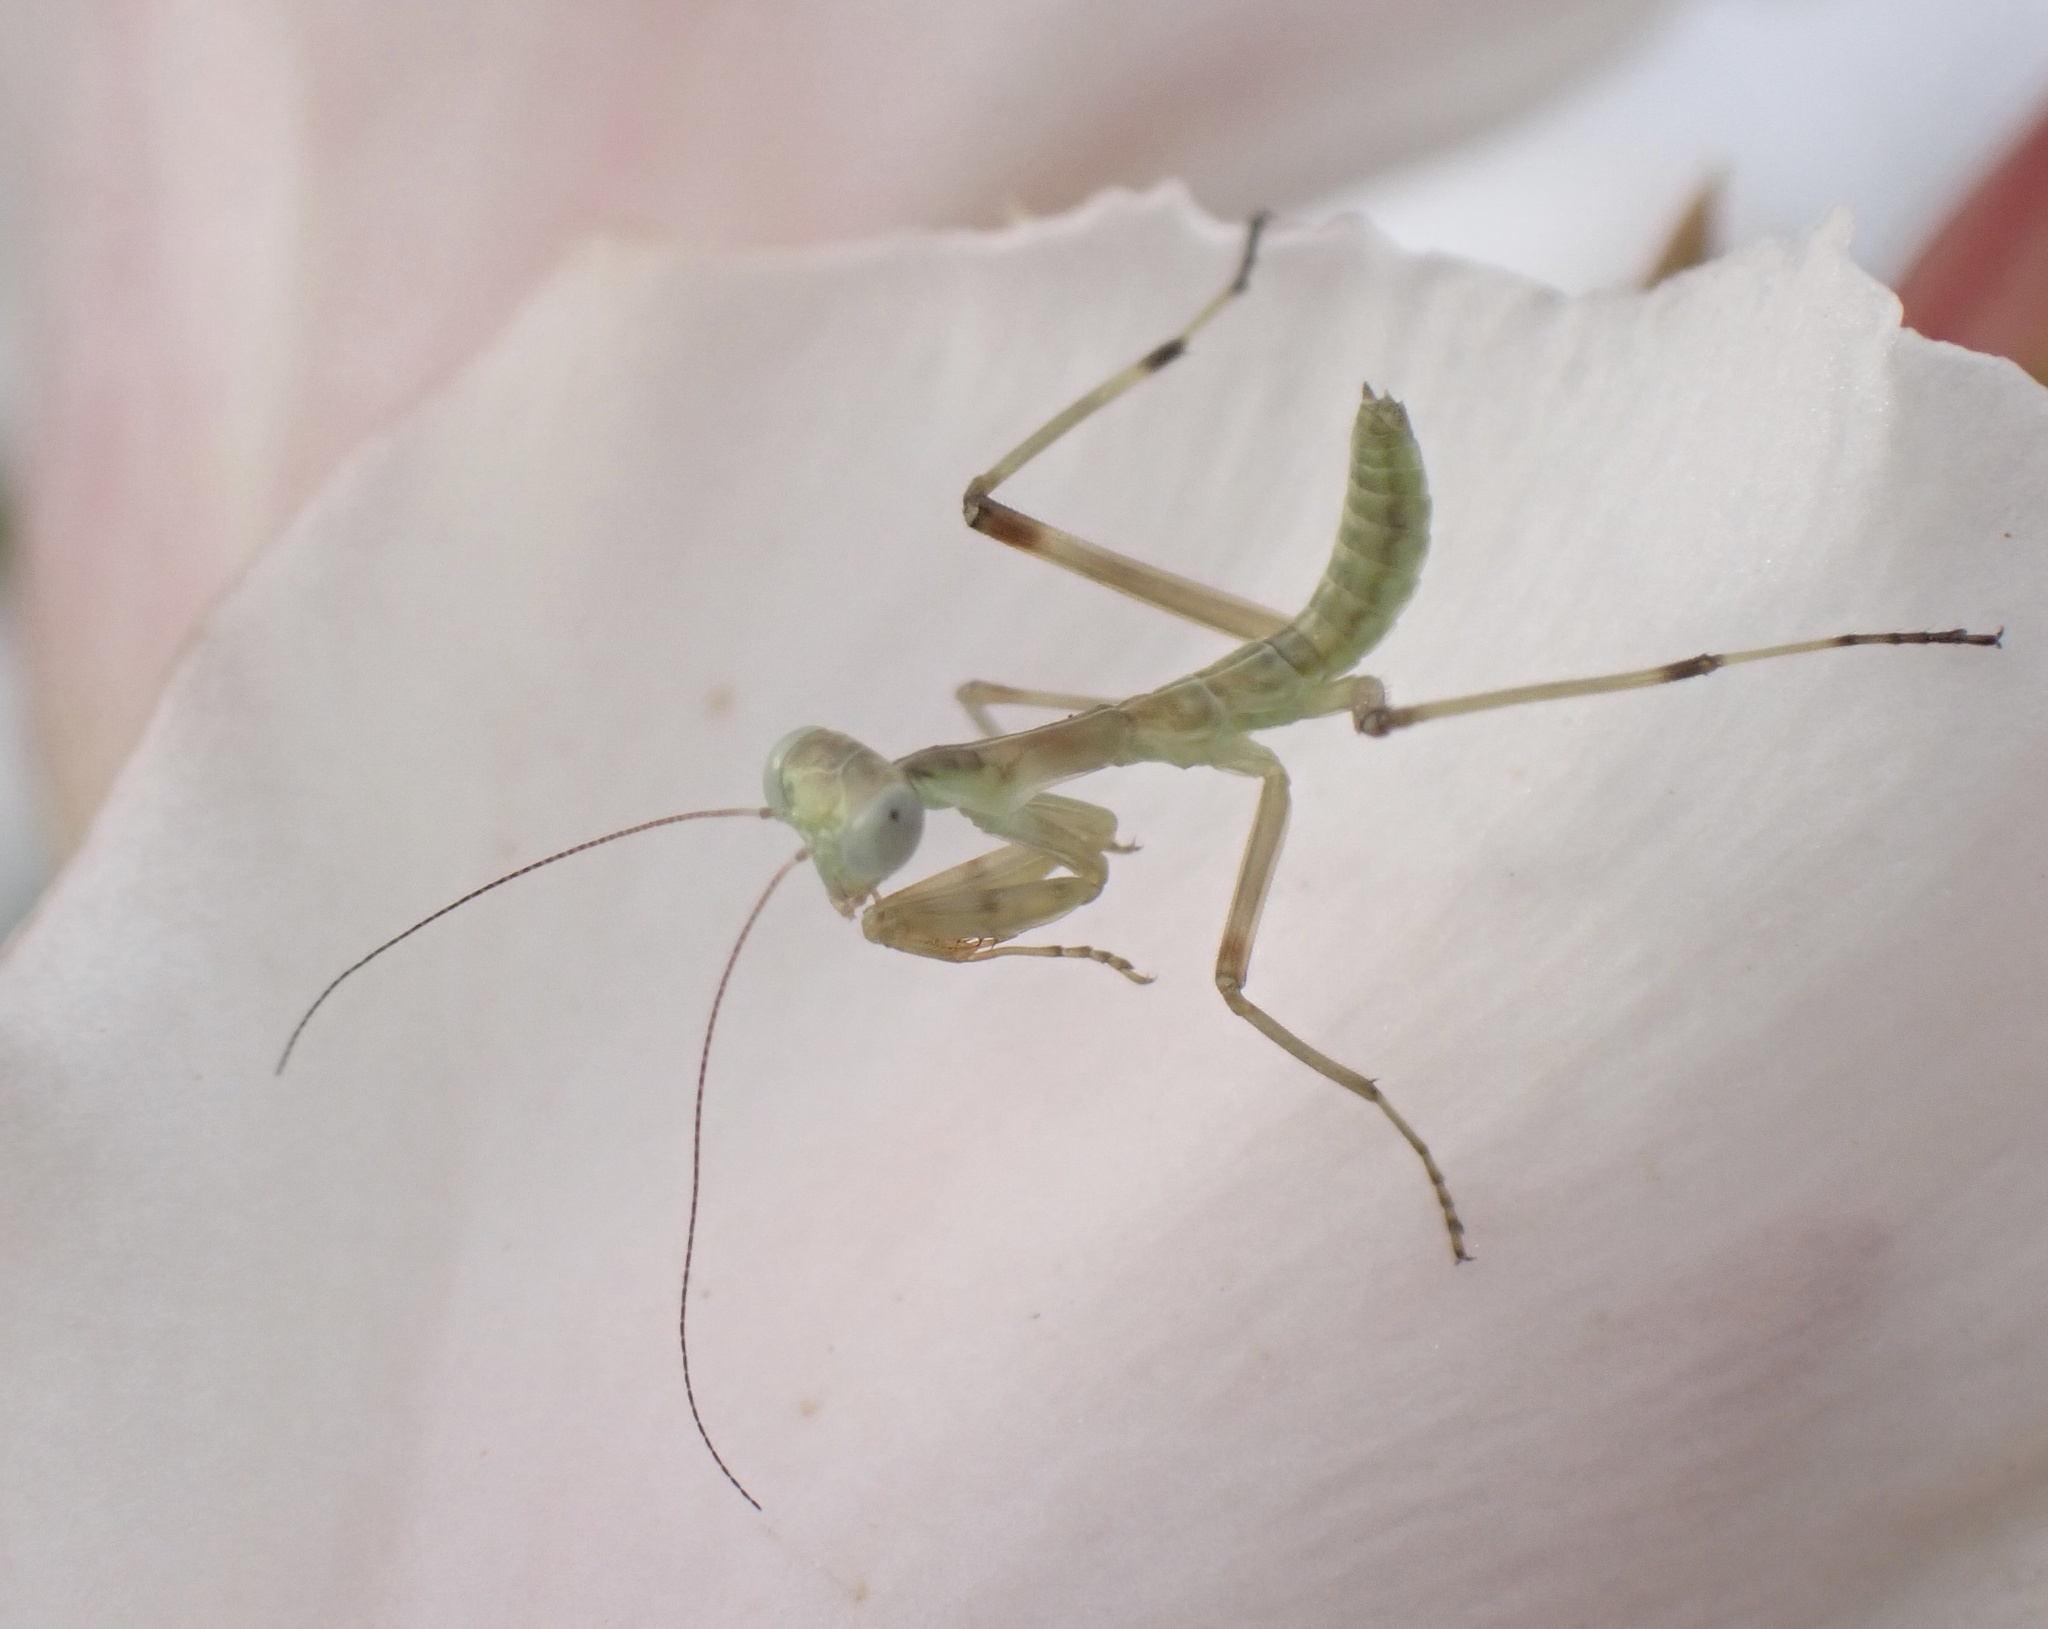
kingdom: Animalia
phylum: Arthropoda
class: Insecta
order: Mantodea
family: Mantidae
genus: Hierodula
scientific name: Hierodula transcaucasica
